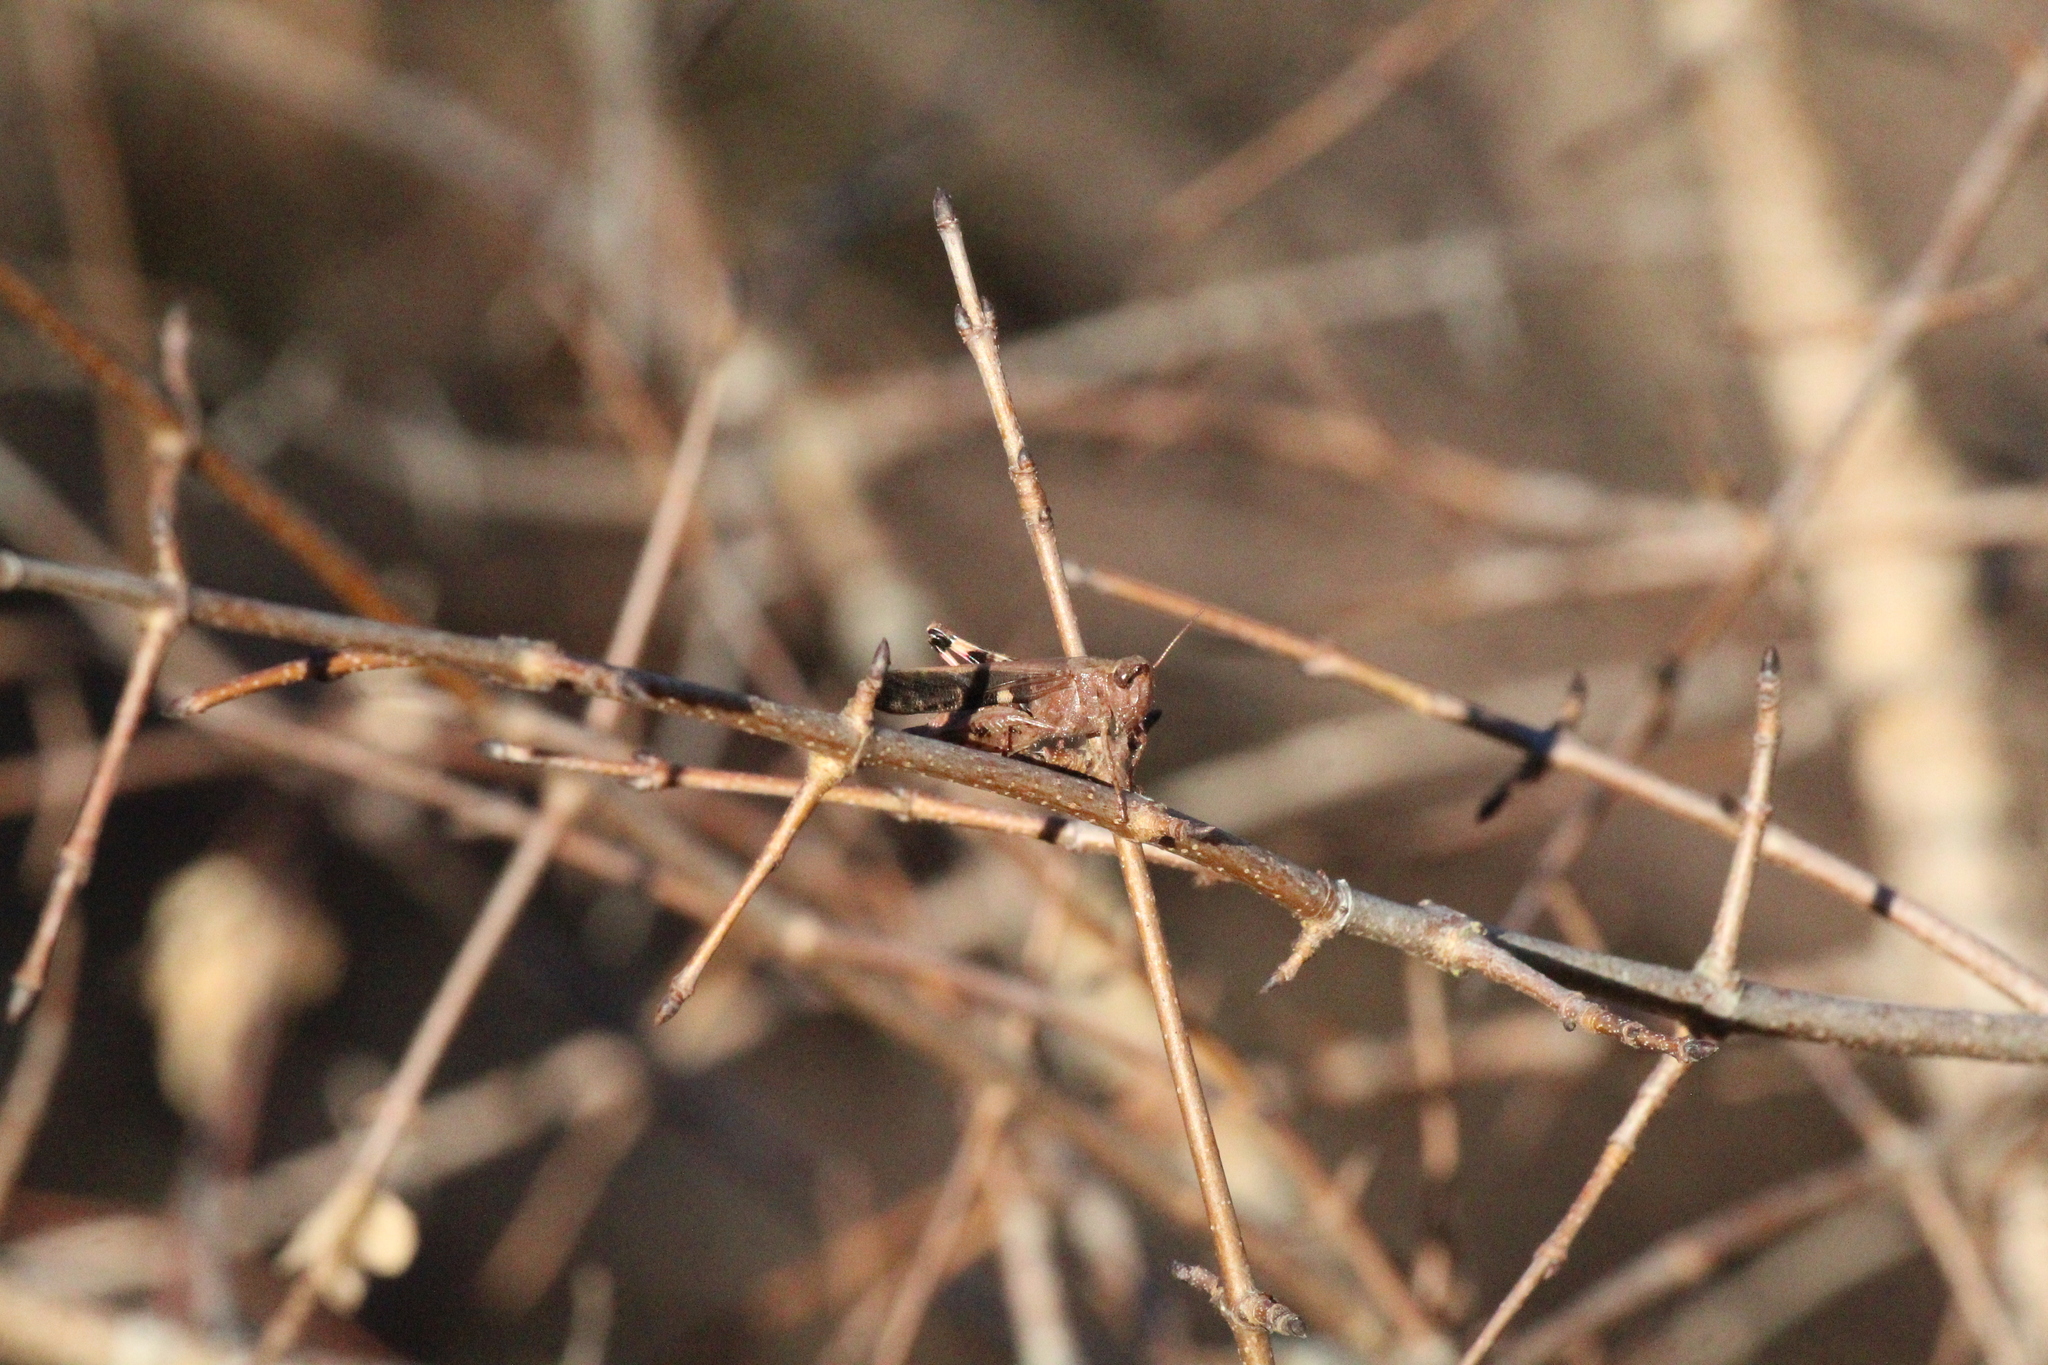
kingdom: Animalia
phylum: Arthropoda
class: Insecta
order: Orthoptera
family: Acrididae
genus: Aiolopus
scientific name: Aiolopus strepens
